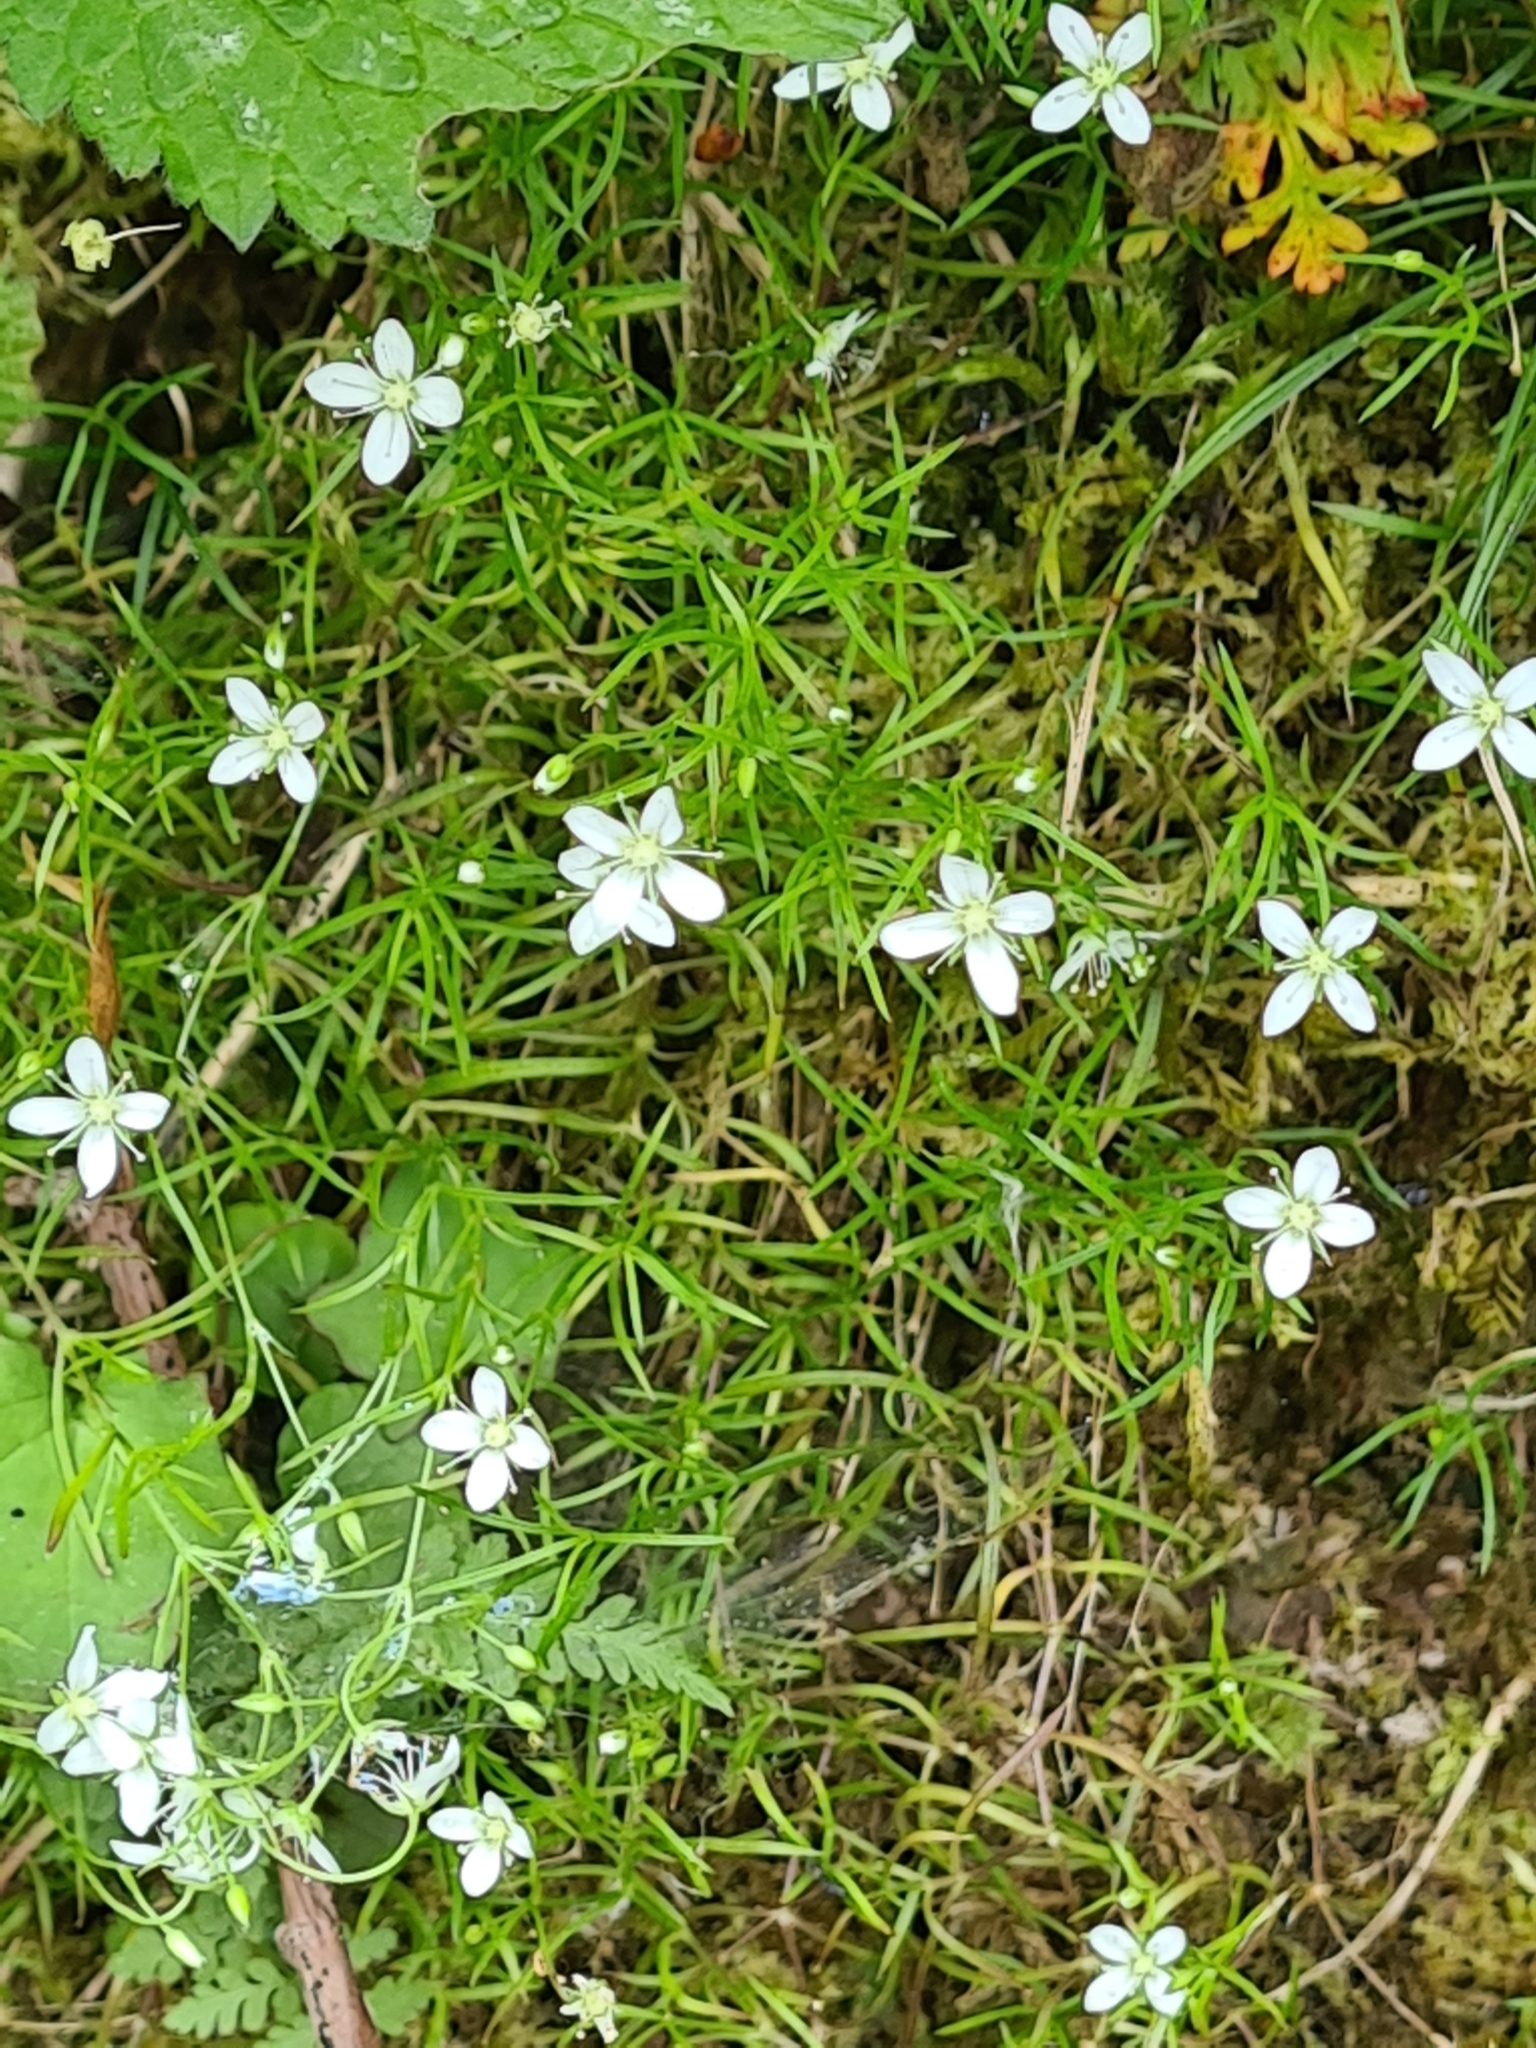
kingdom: Plantae
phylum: Tracheophyta
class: Magnoliopsida
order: Caryophyllales
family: Caryophyllaceae
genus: Moehringia
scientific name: Moehringia muscosa
